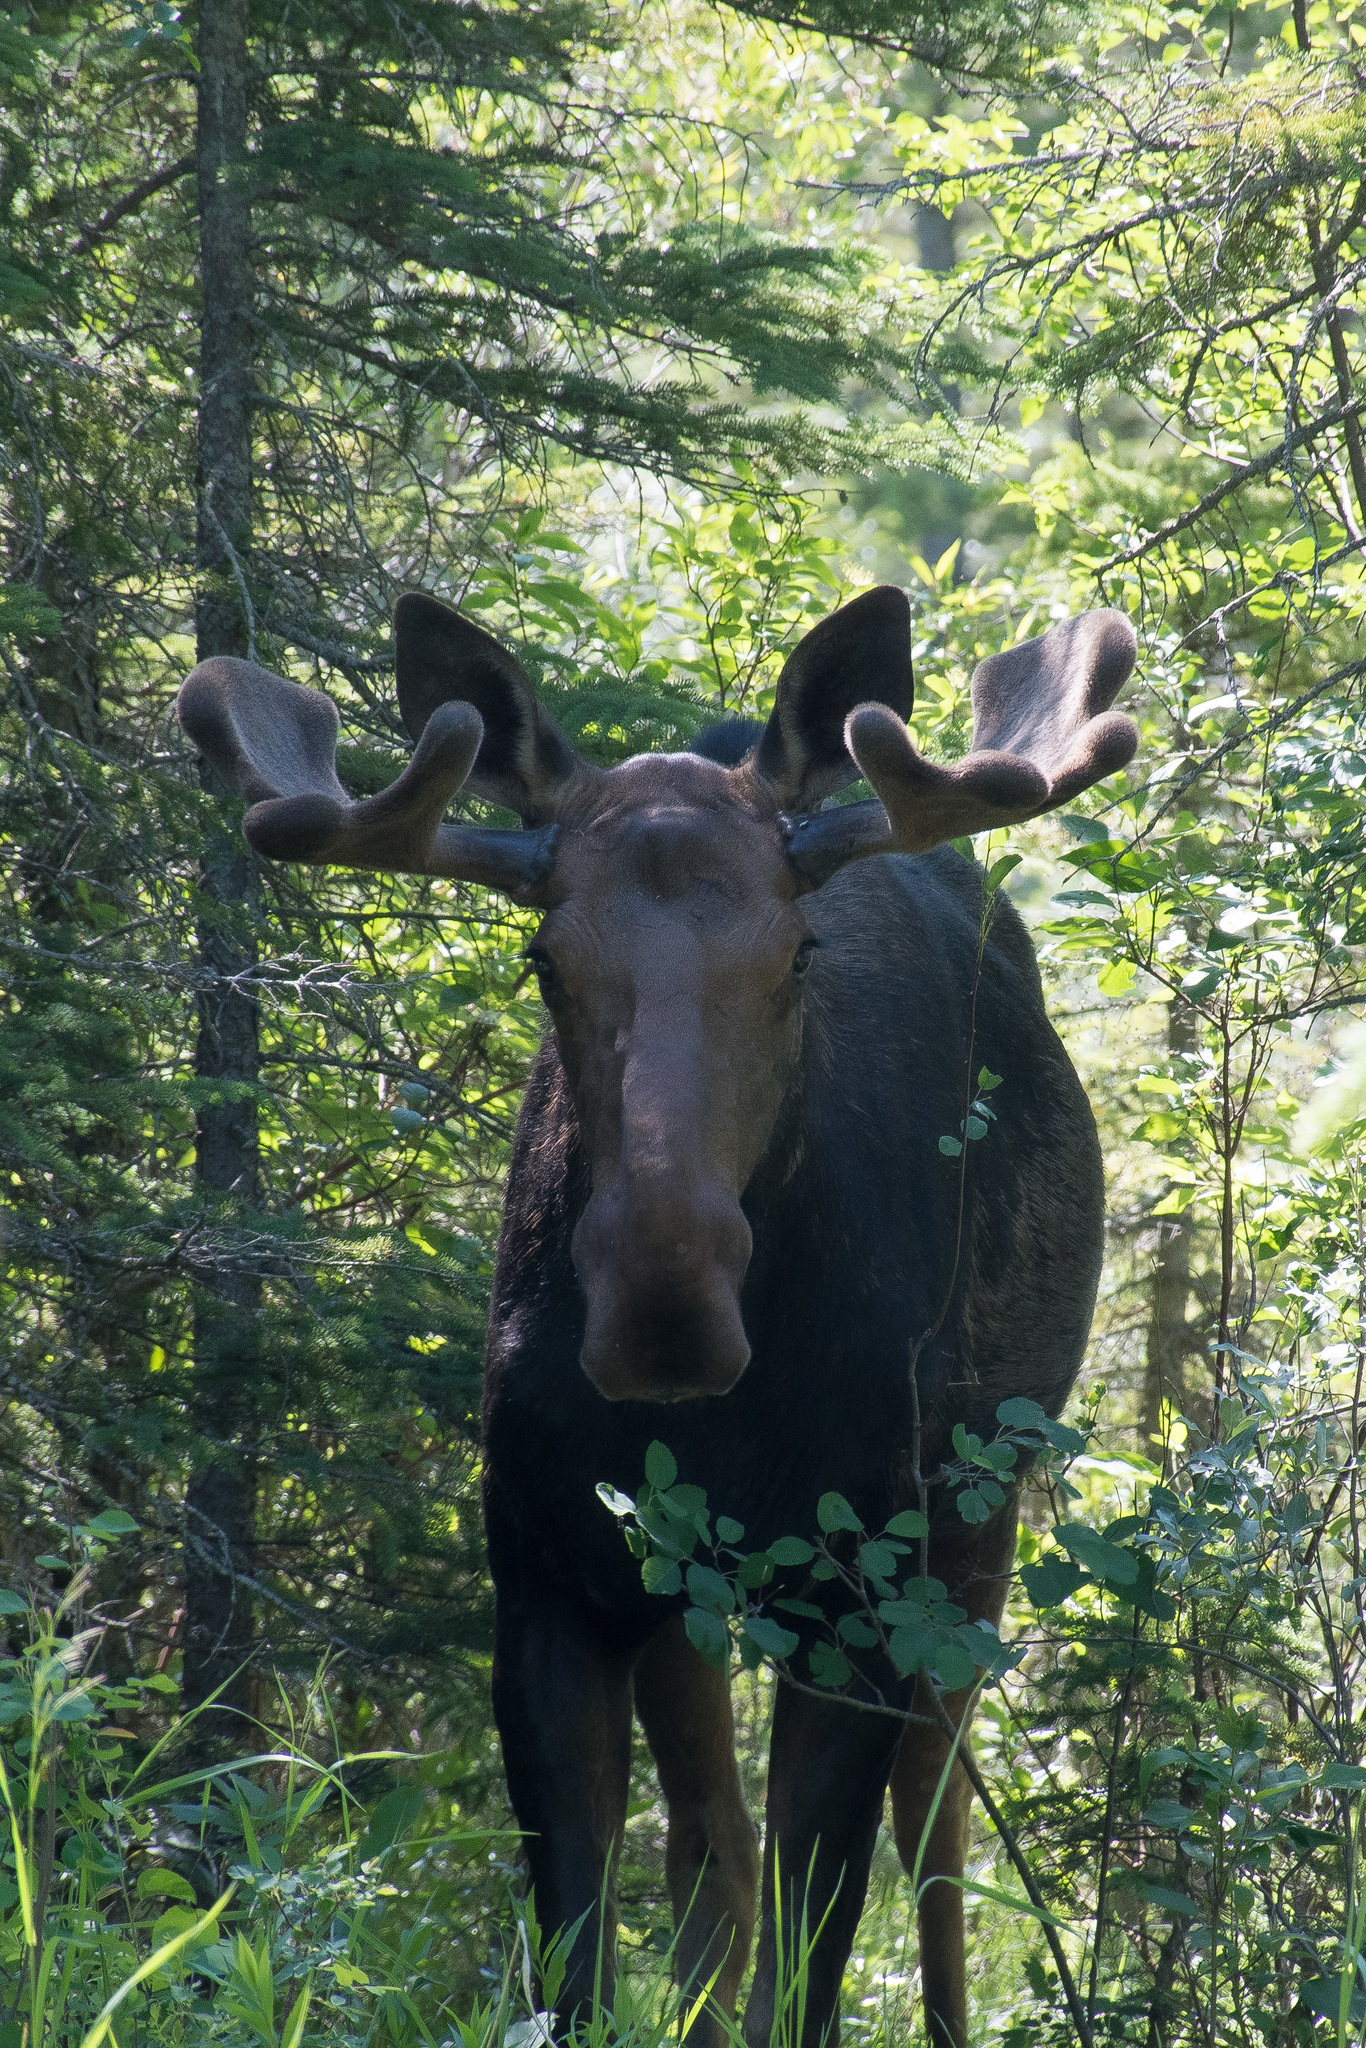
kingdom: Animalia
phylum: Chordata
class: Mammalia
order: Artiodactyla
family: Cervidae
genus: Alces
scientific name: Alces alces
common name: Moose
